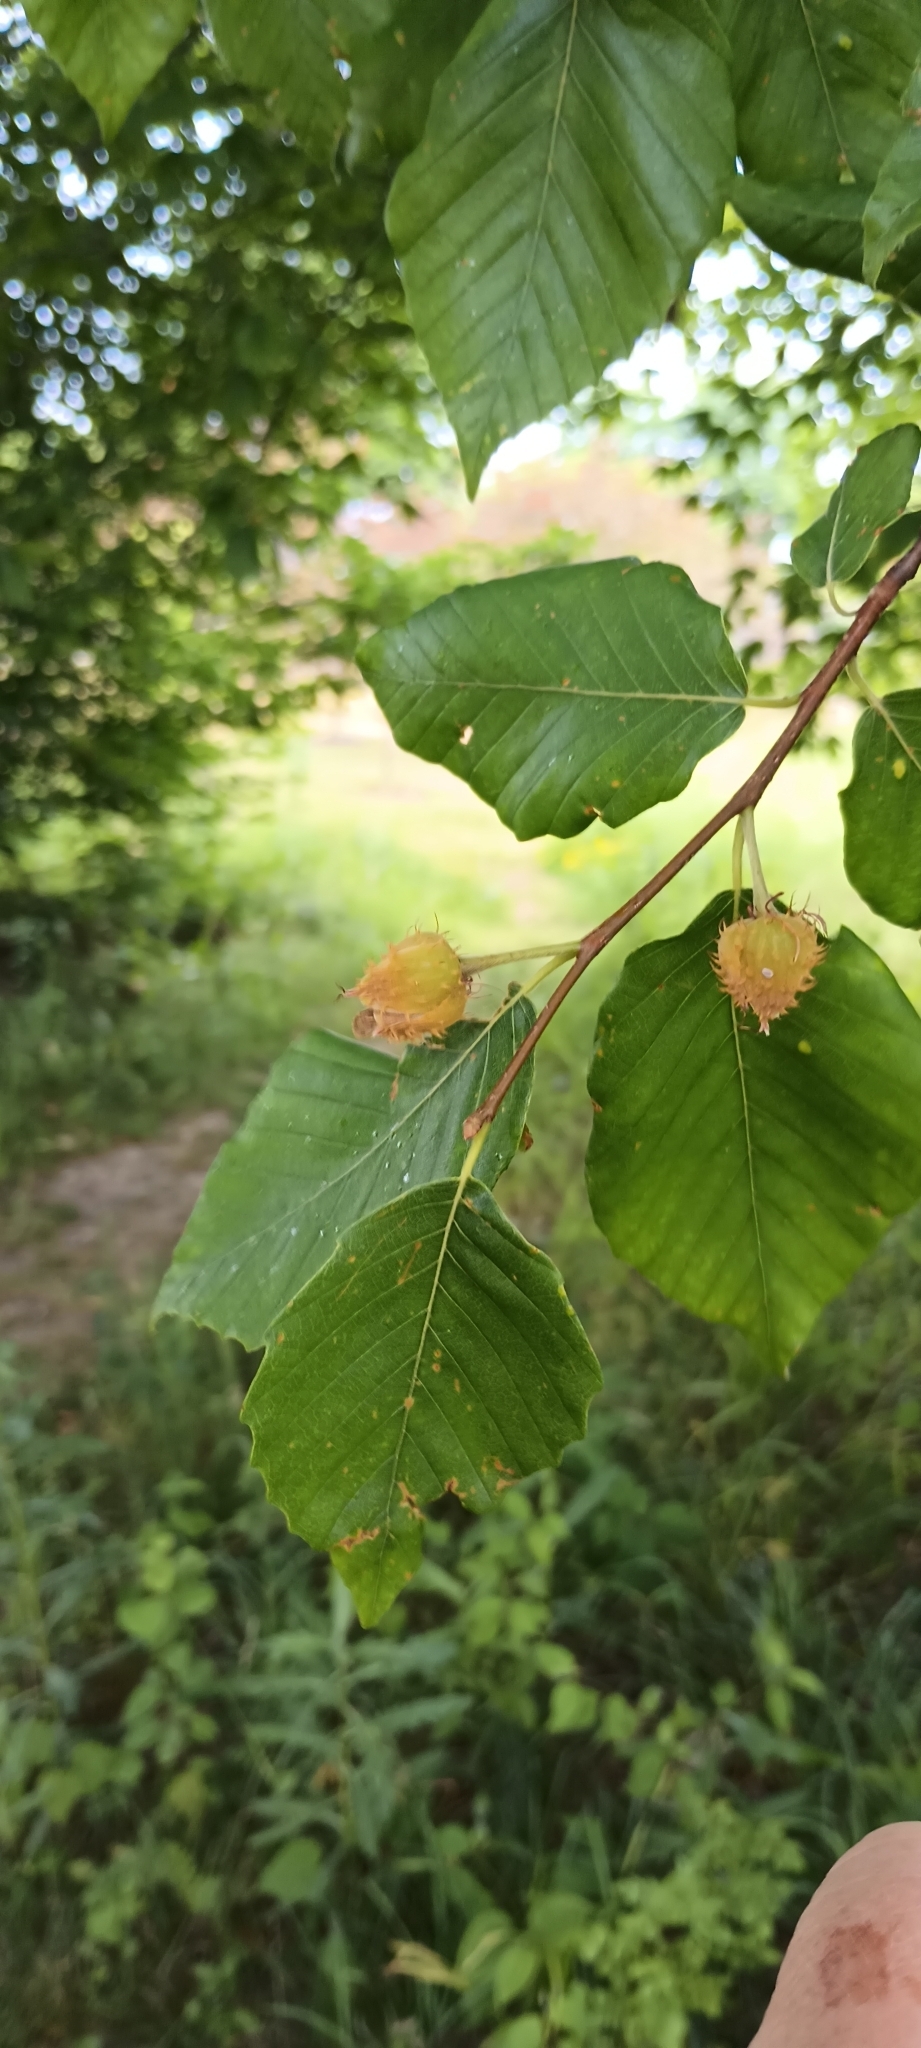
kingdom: Plantae
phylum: Tracheophyta
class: Magnoliopsida
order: Fagales
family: Fagaceae
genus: Fagus
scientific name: Fagus grandifolia
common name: American beech
